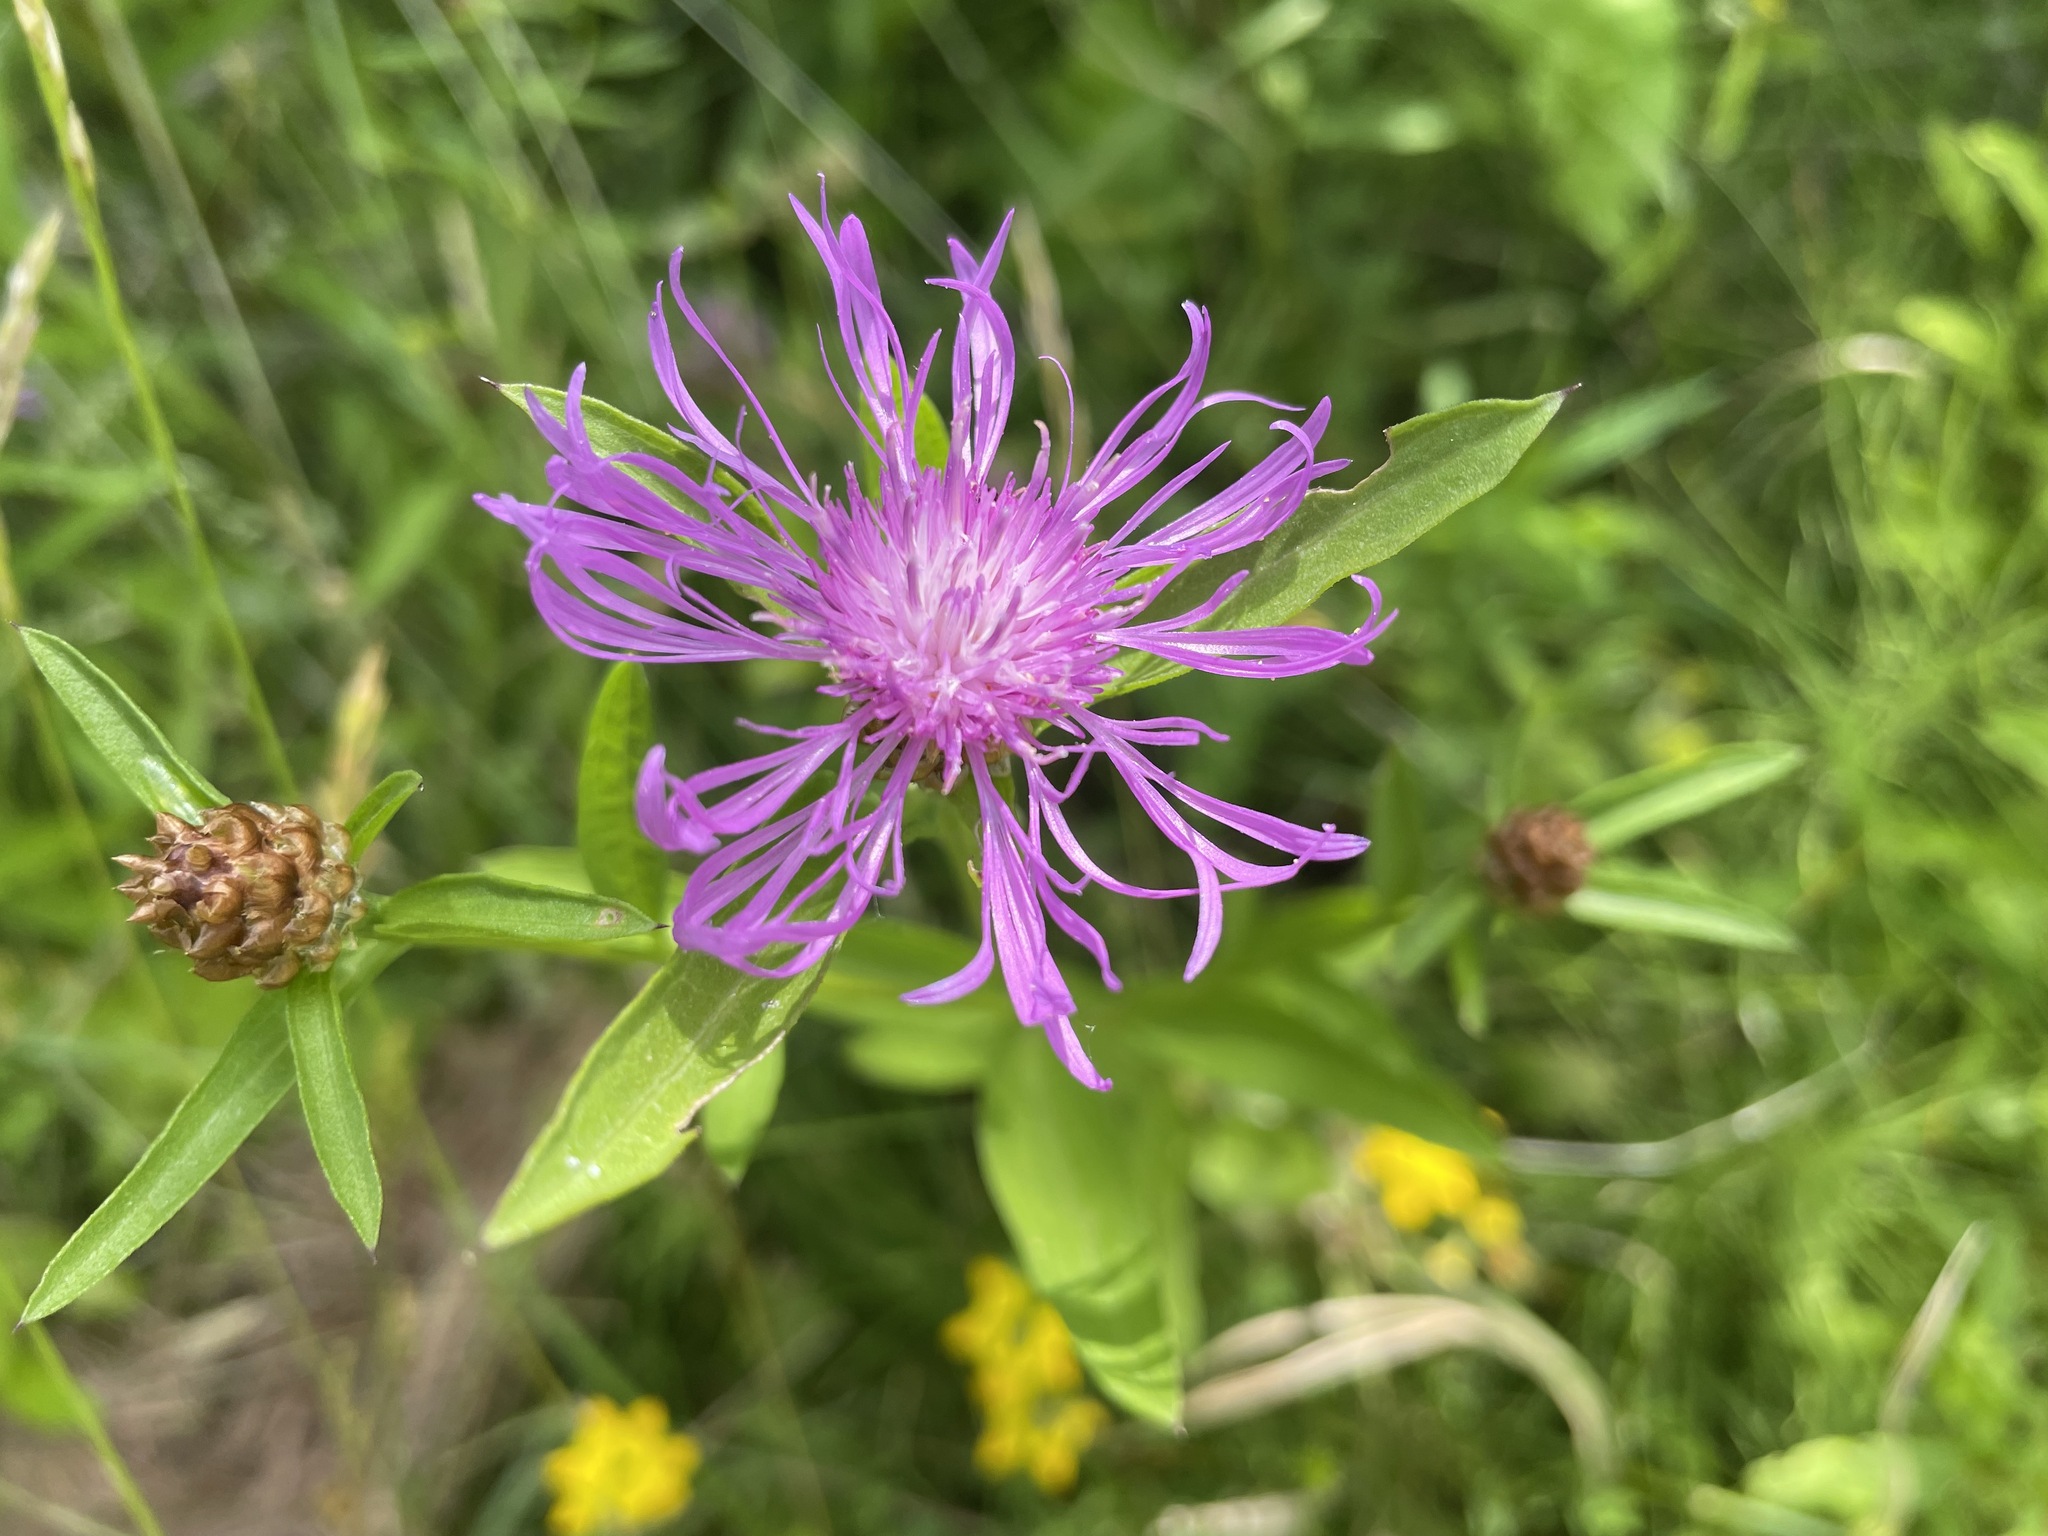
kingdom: Plantae
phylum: Tracheophyta
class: Magnoliopsida
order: Asterales
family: Asteraceae
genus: Centaurea
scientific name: Centaurea jacea
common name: Brown knapweed
